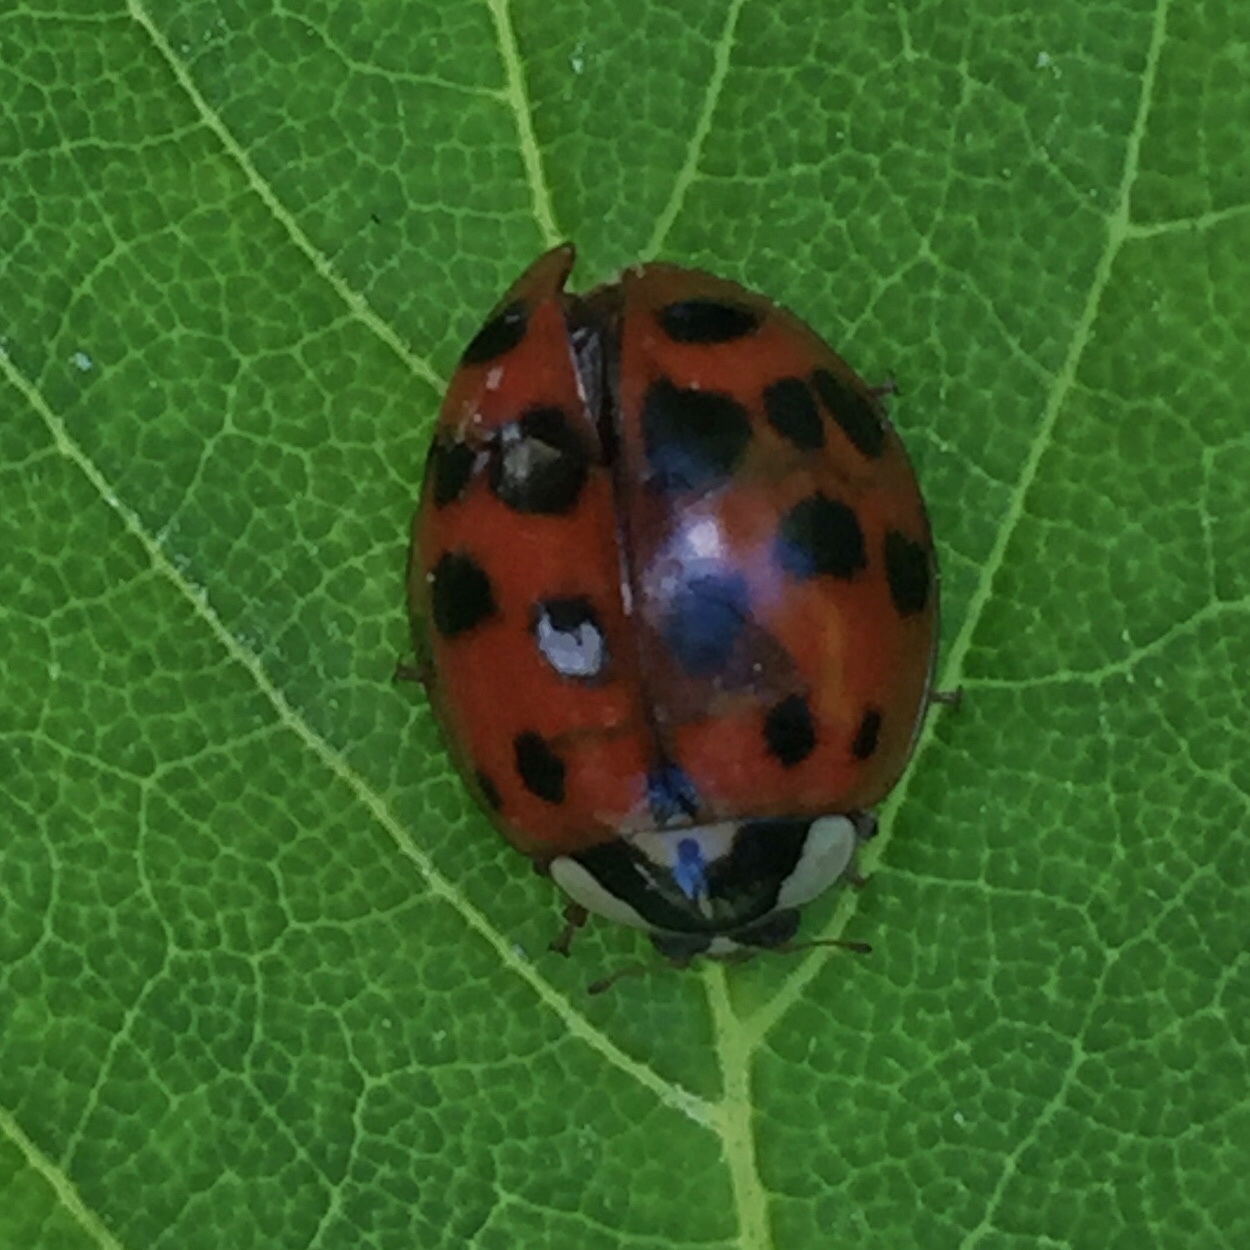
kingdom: Animalia
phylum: Arthropoda
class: Insecta
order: Coleoptera
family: Coccinellidae
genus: Harmonia
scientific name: Harmonia axyridis
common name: Harlequin ladybird
